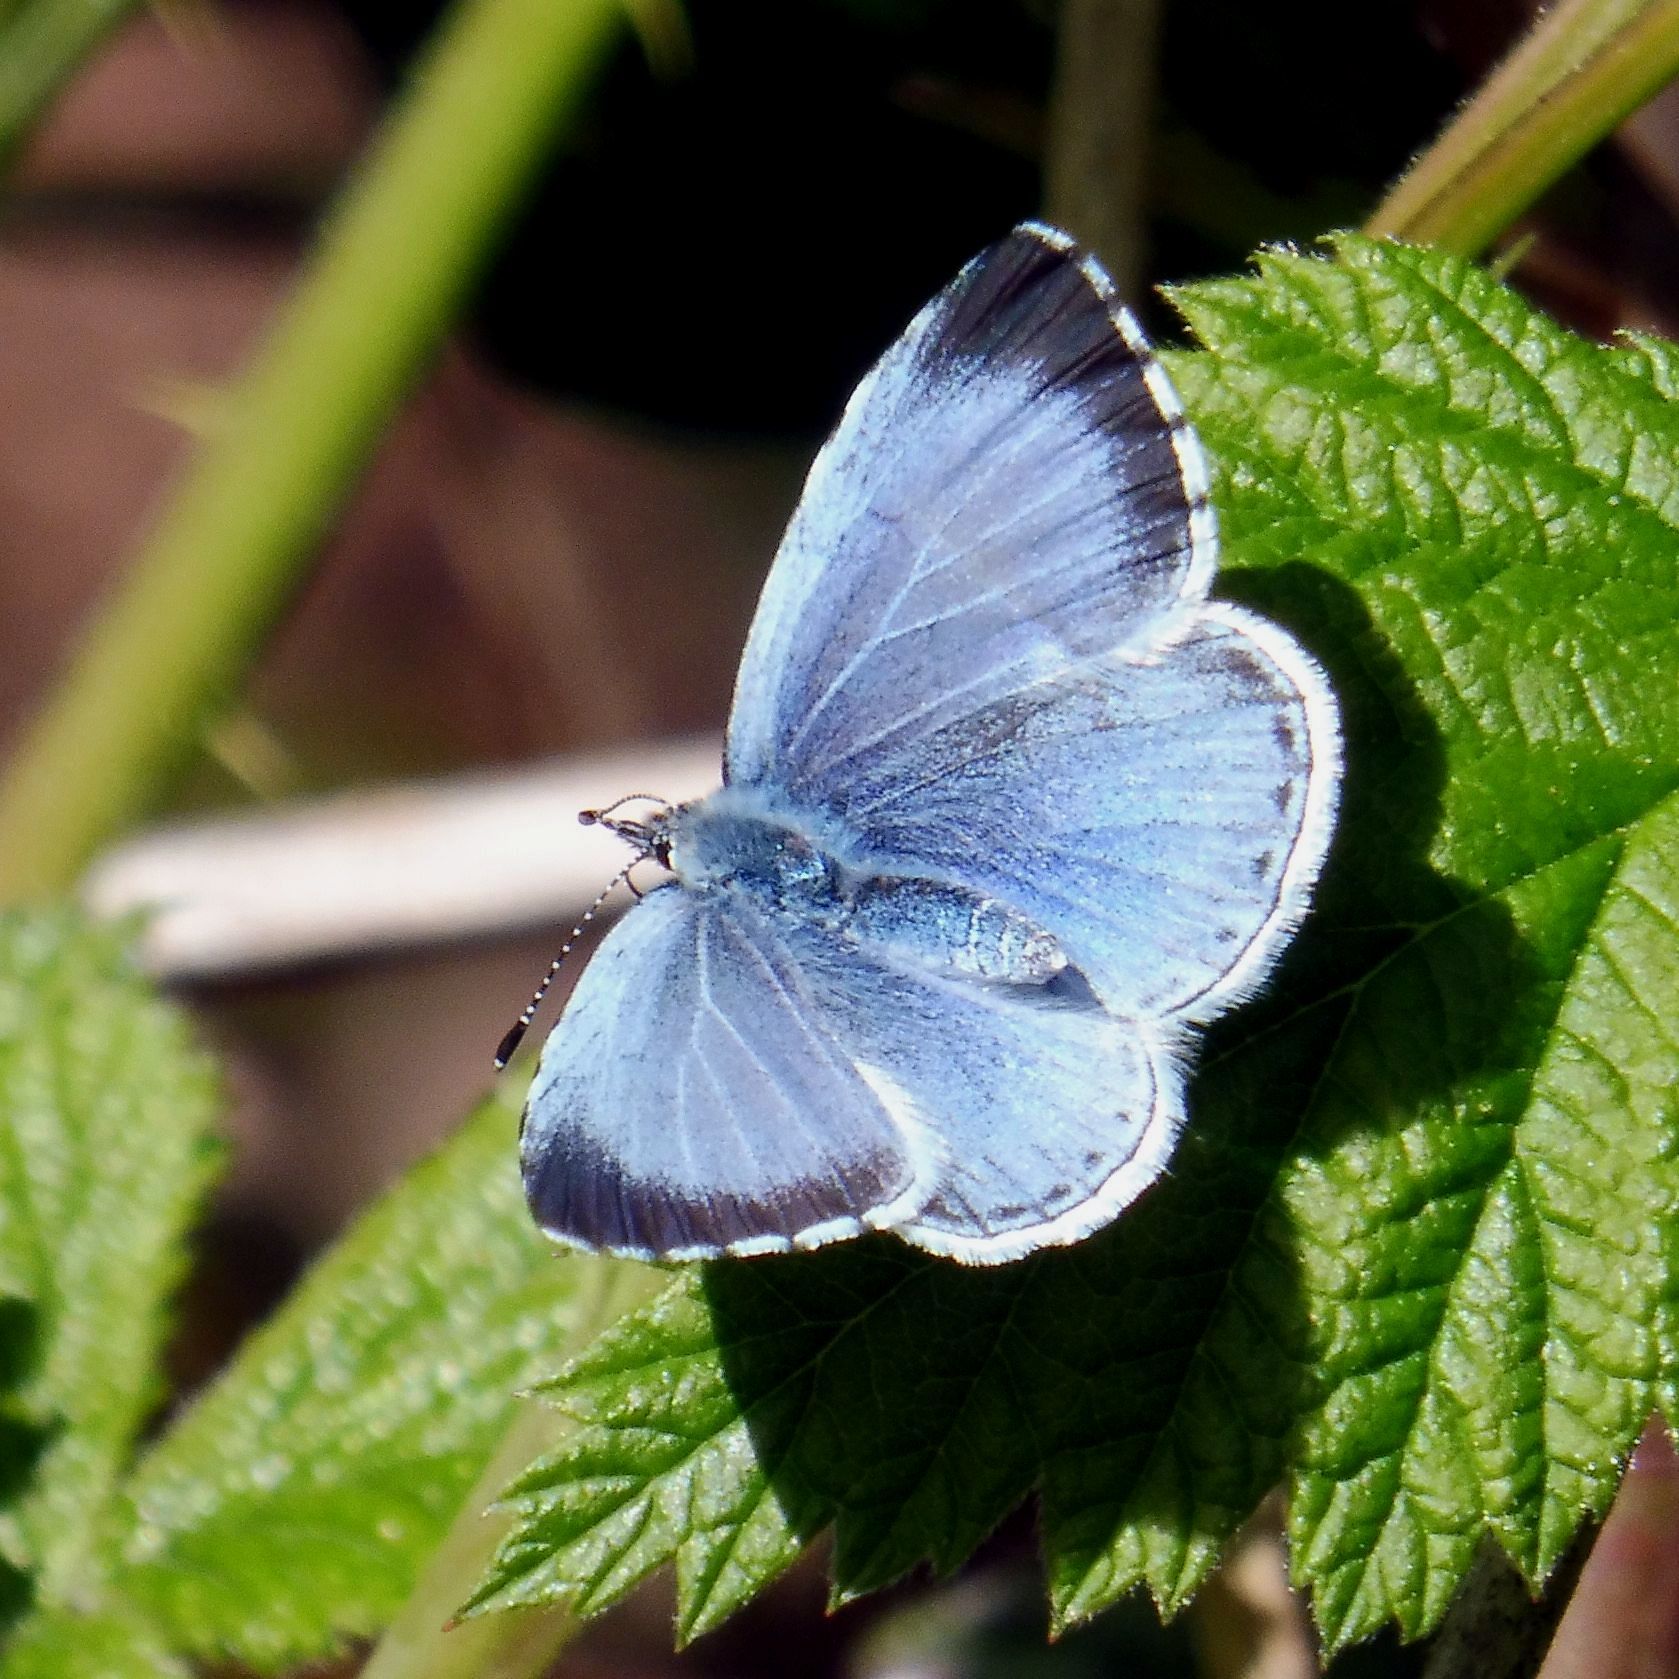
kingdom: Animalia
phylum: Arthropoda
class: Insecta
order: Lepidoptera
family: Lycaenidae
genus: Celastrina
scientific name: Celastrina argiolus
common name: Holly blue
